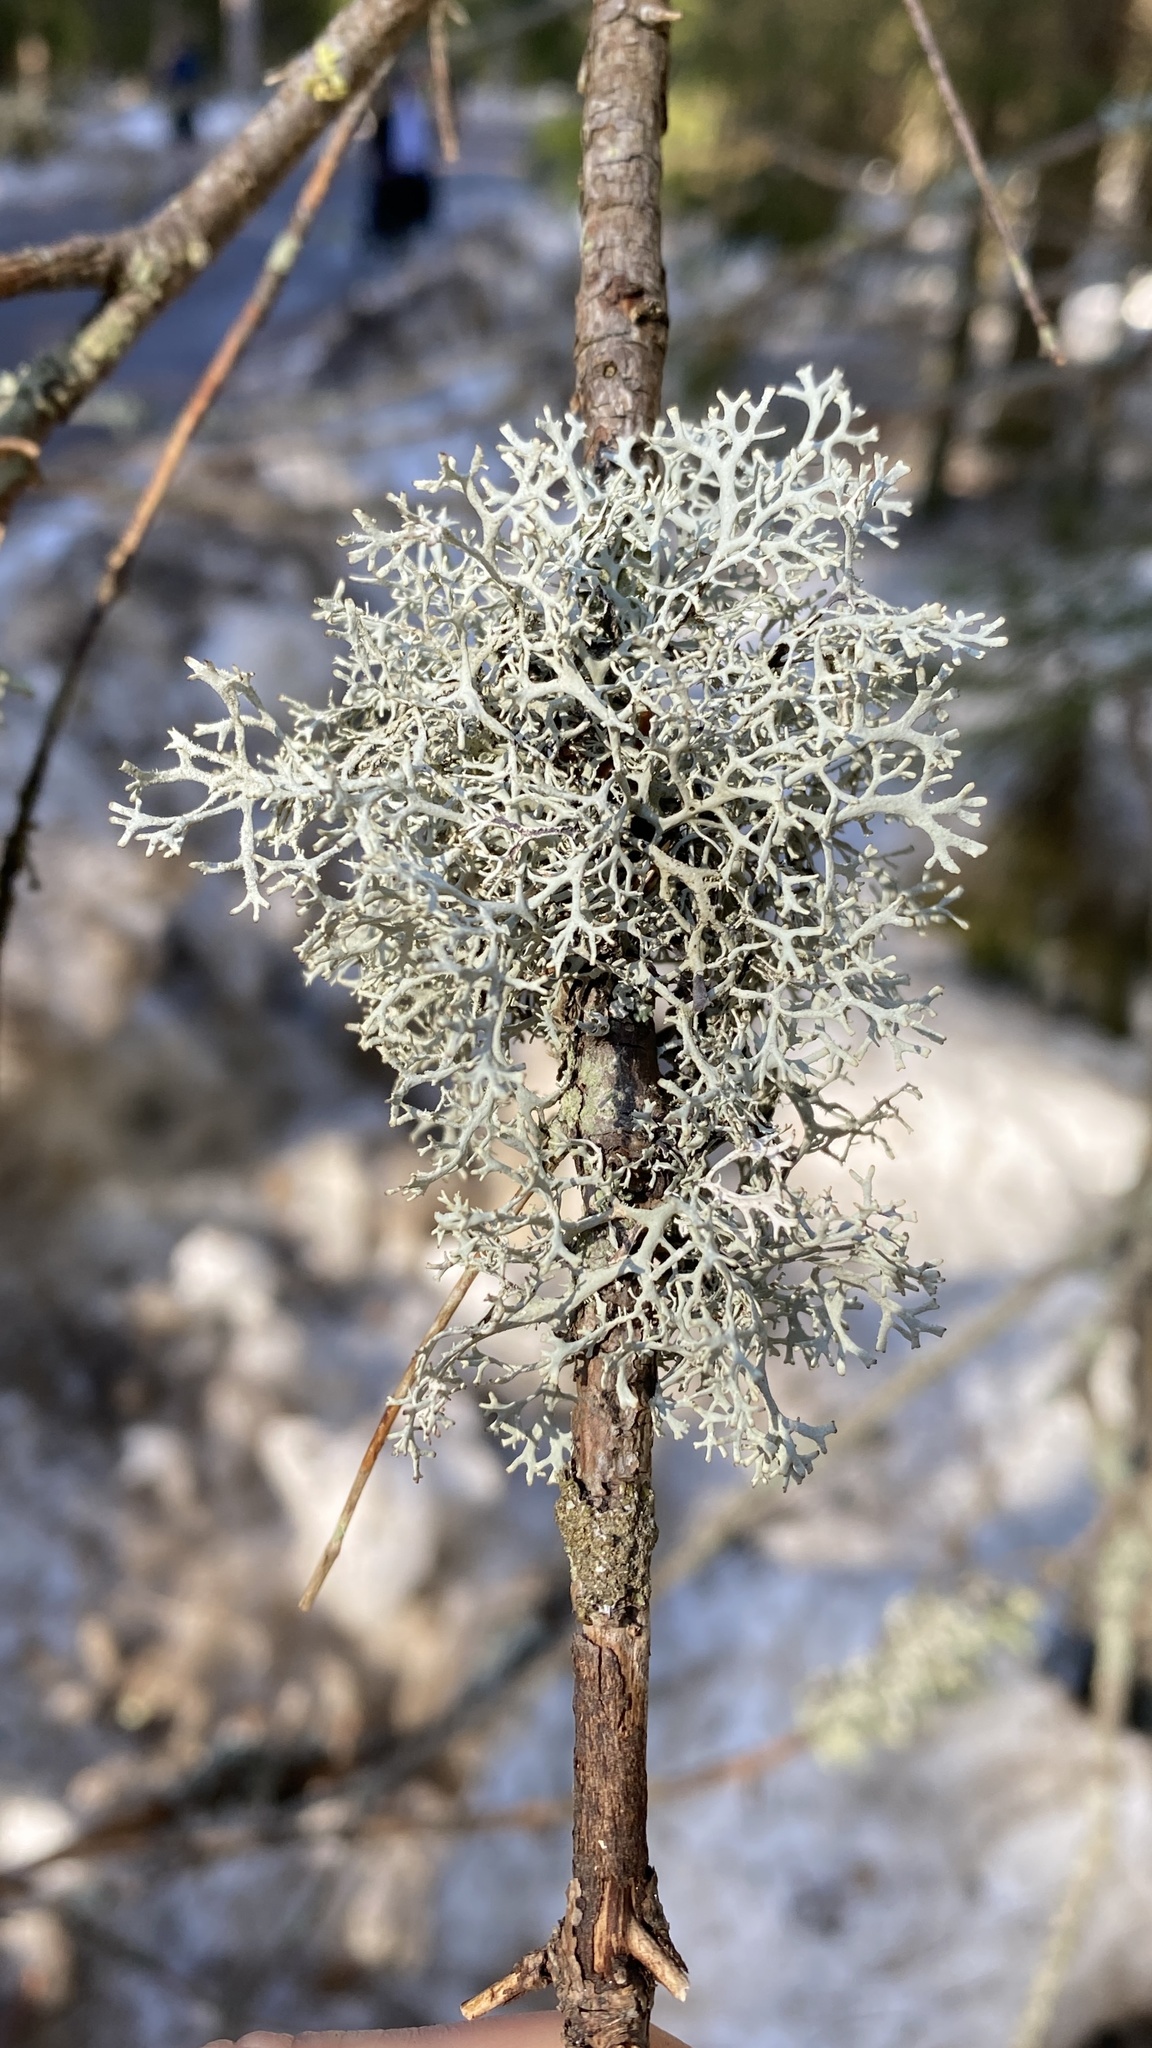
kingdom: Fungi
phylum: Ascomycota
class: Lecanoromycetes
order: Lecanorales
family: Parmeliaceae
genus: Pseudevernia
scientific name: Pseudevernia furfuracea
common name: Tree moss
